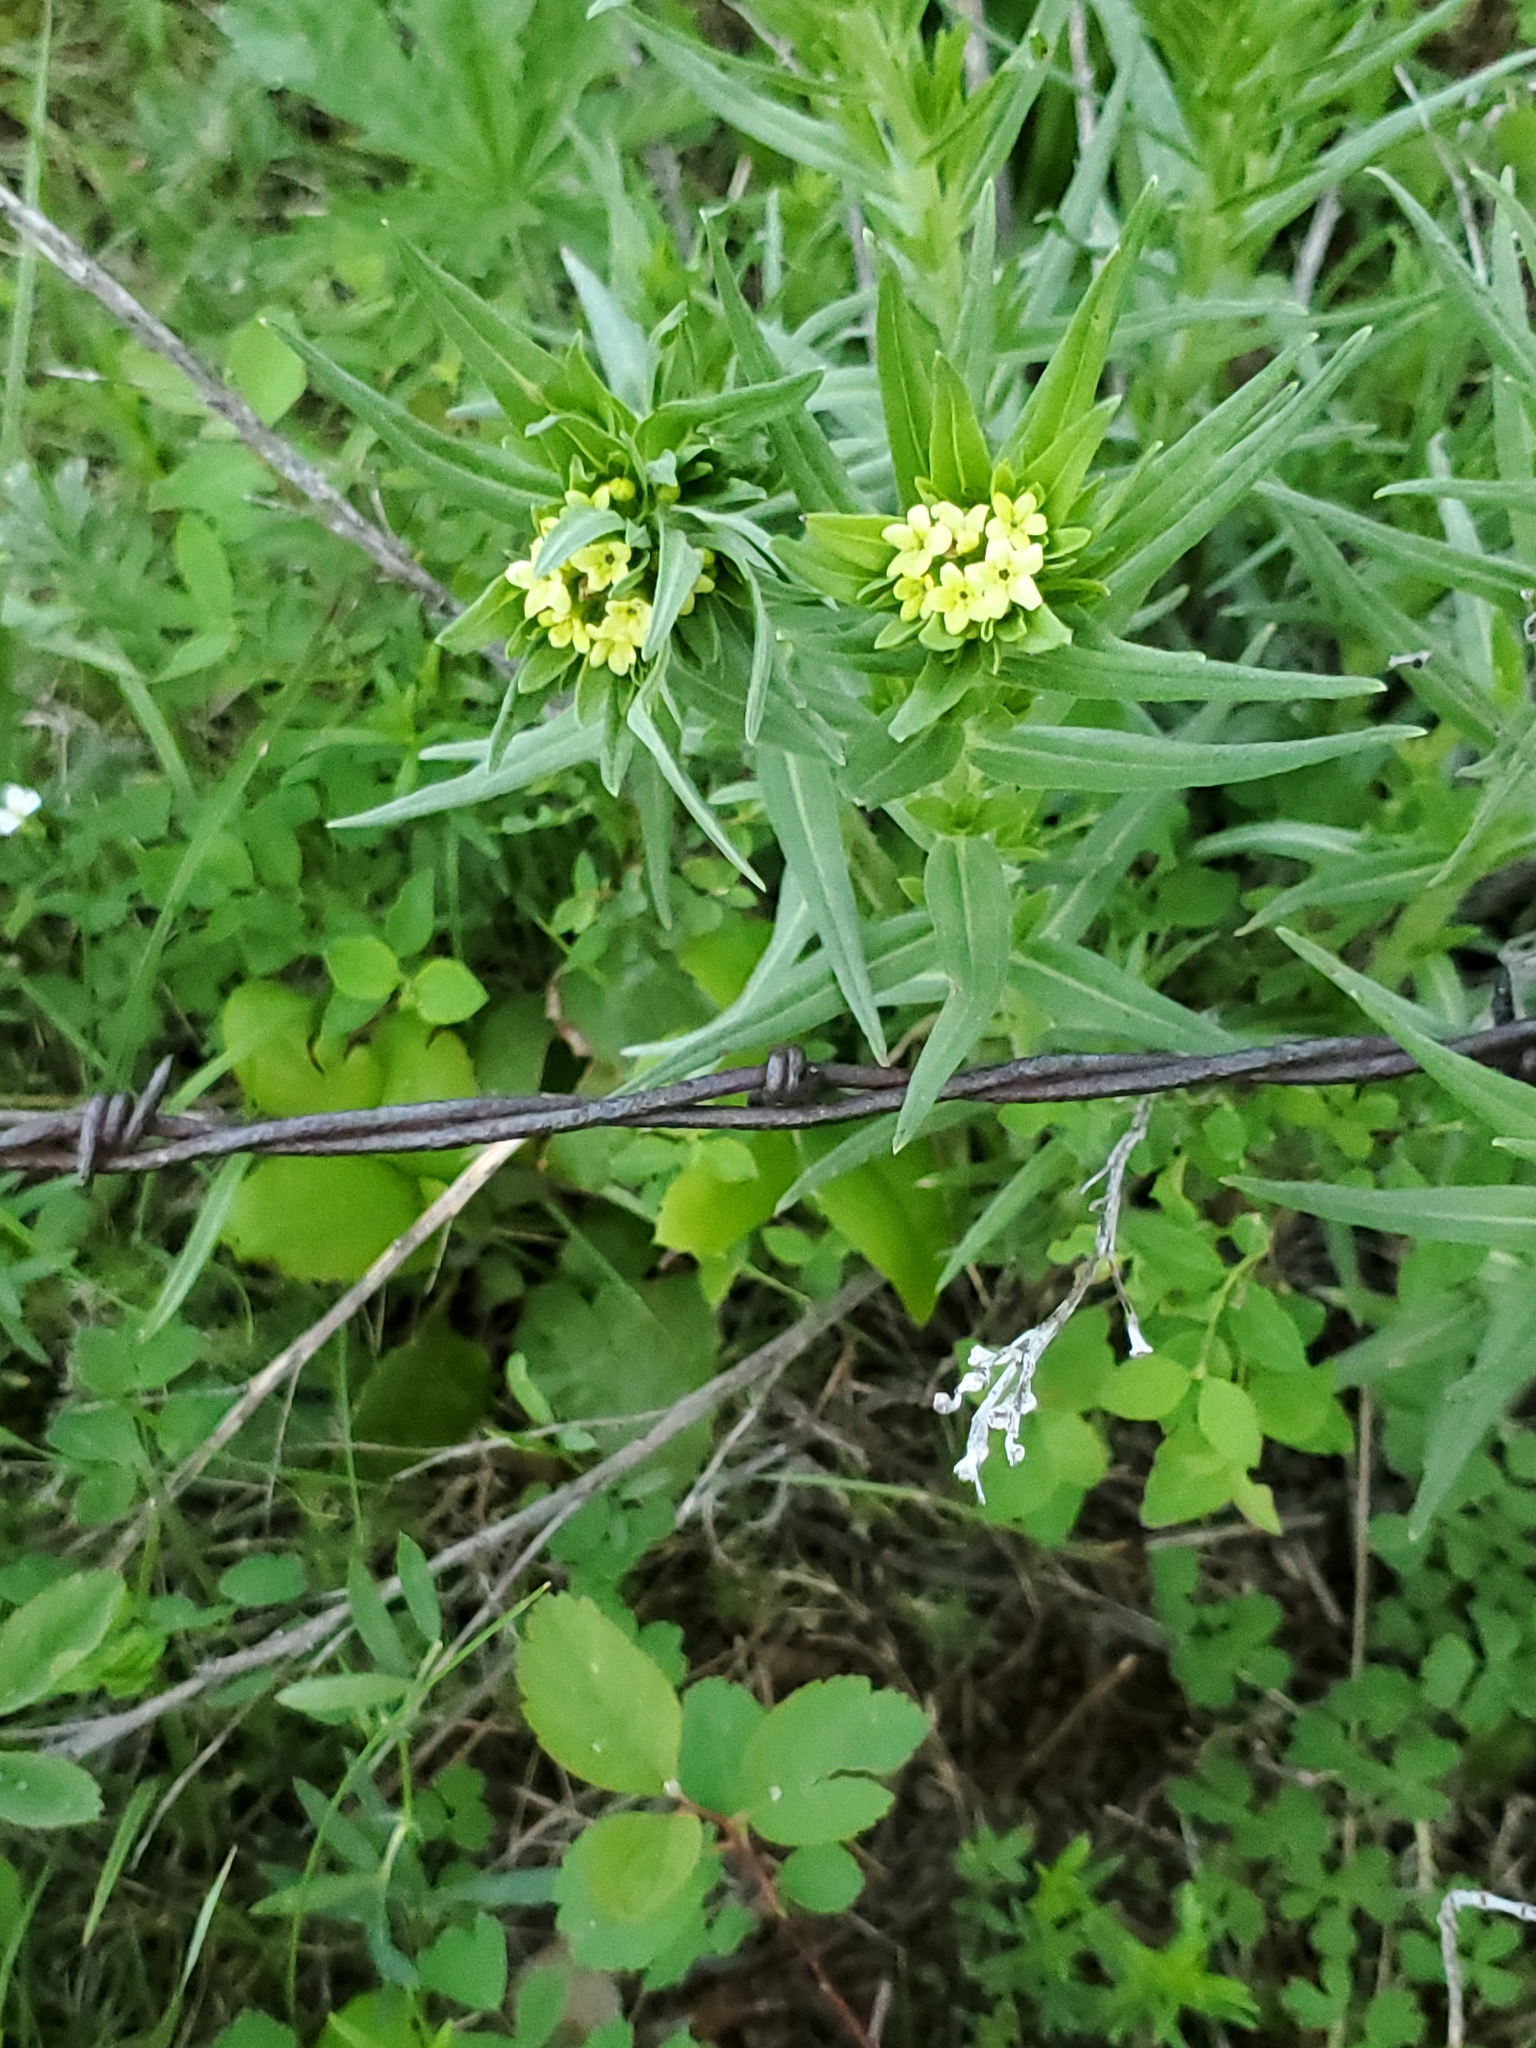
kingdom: Plantae
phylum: Tracheophyta
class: Magnoliopsida
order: Boraginales
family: Boraginaceae
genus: Lithospermum
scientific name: Lithospermum ruderale
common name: Western gromwell
